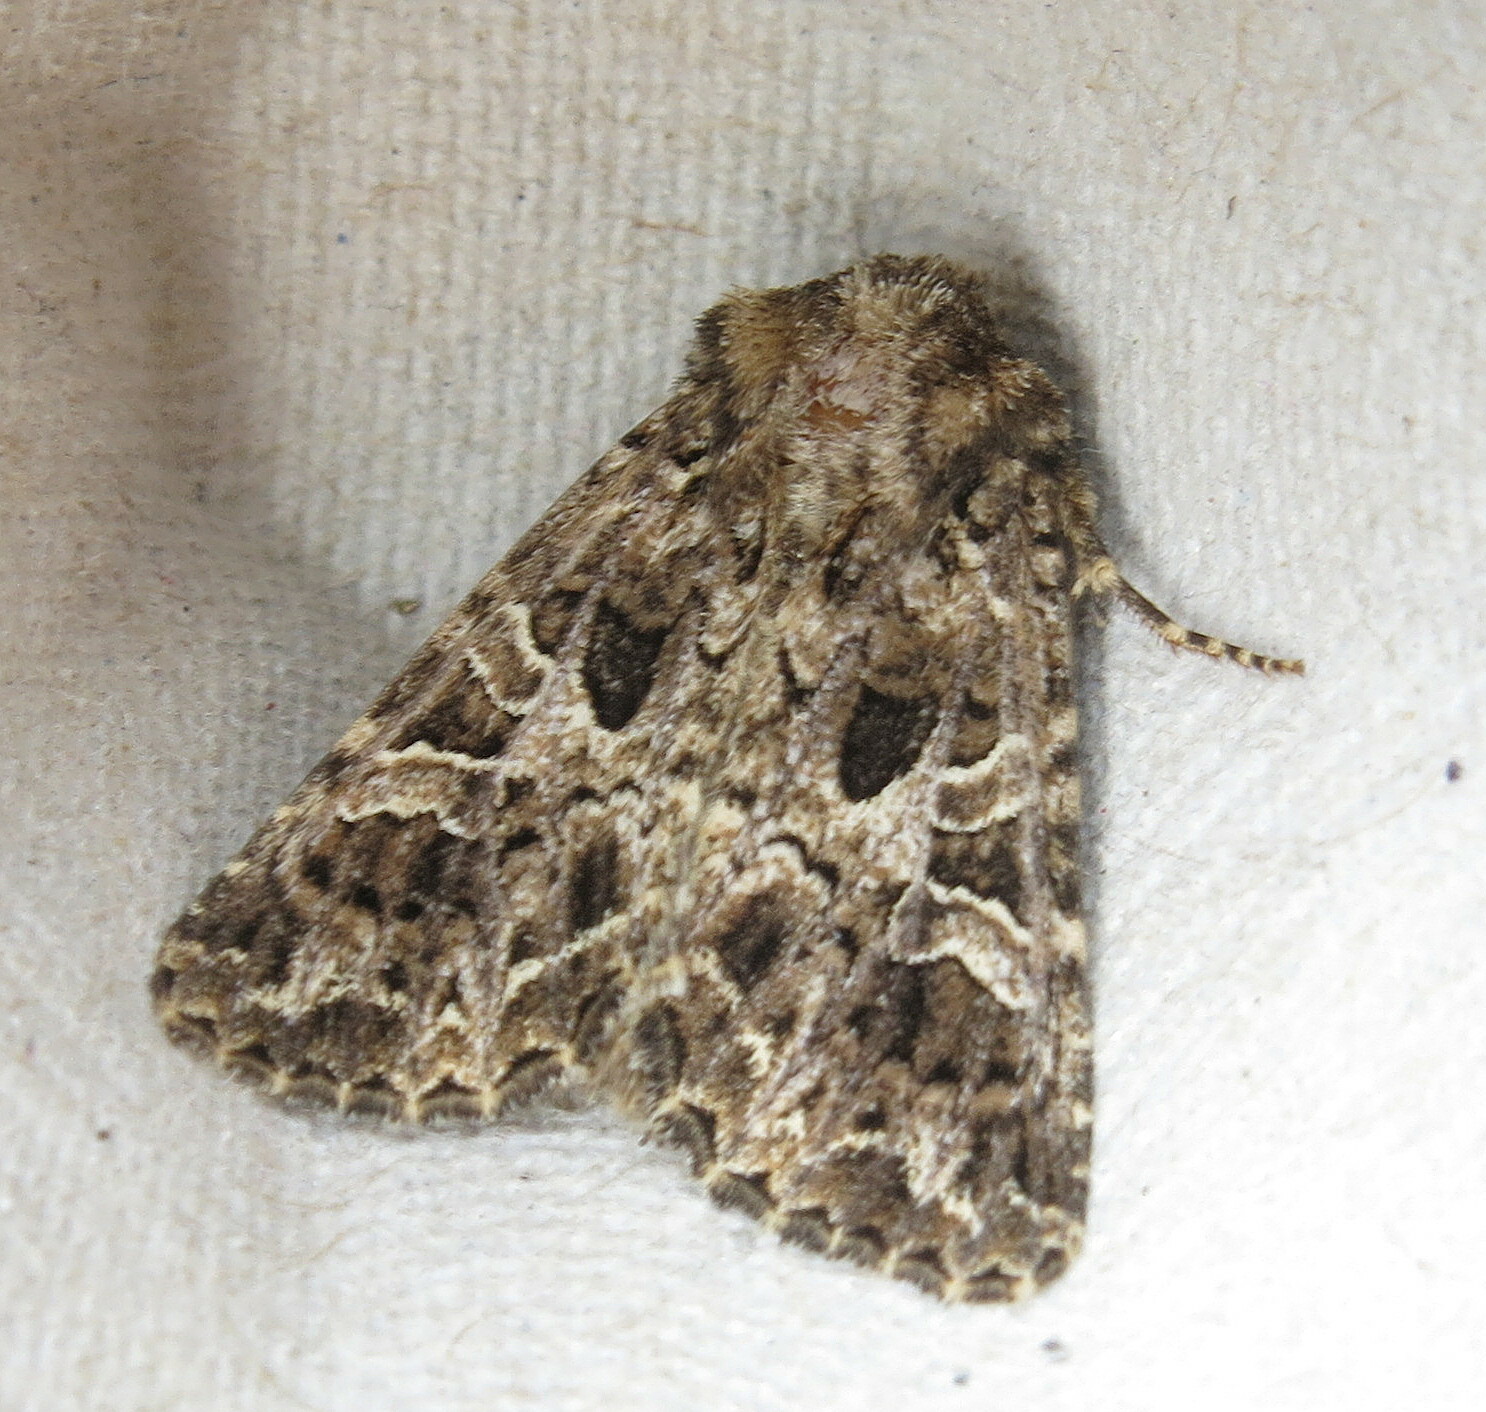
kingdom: Animalia
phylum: Arthropoda
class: Insecta
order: Lepidoptera
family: Noctuidae
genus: Hadena
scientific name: Hadena bicruris
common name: Lychnis
